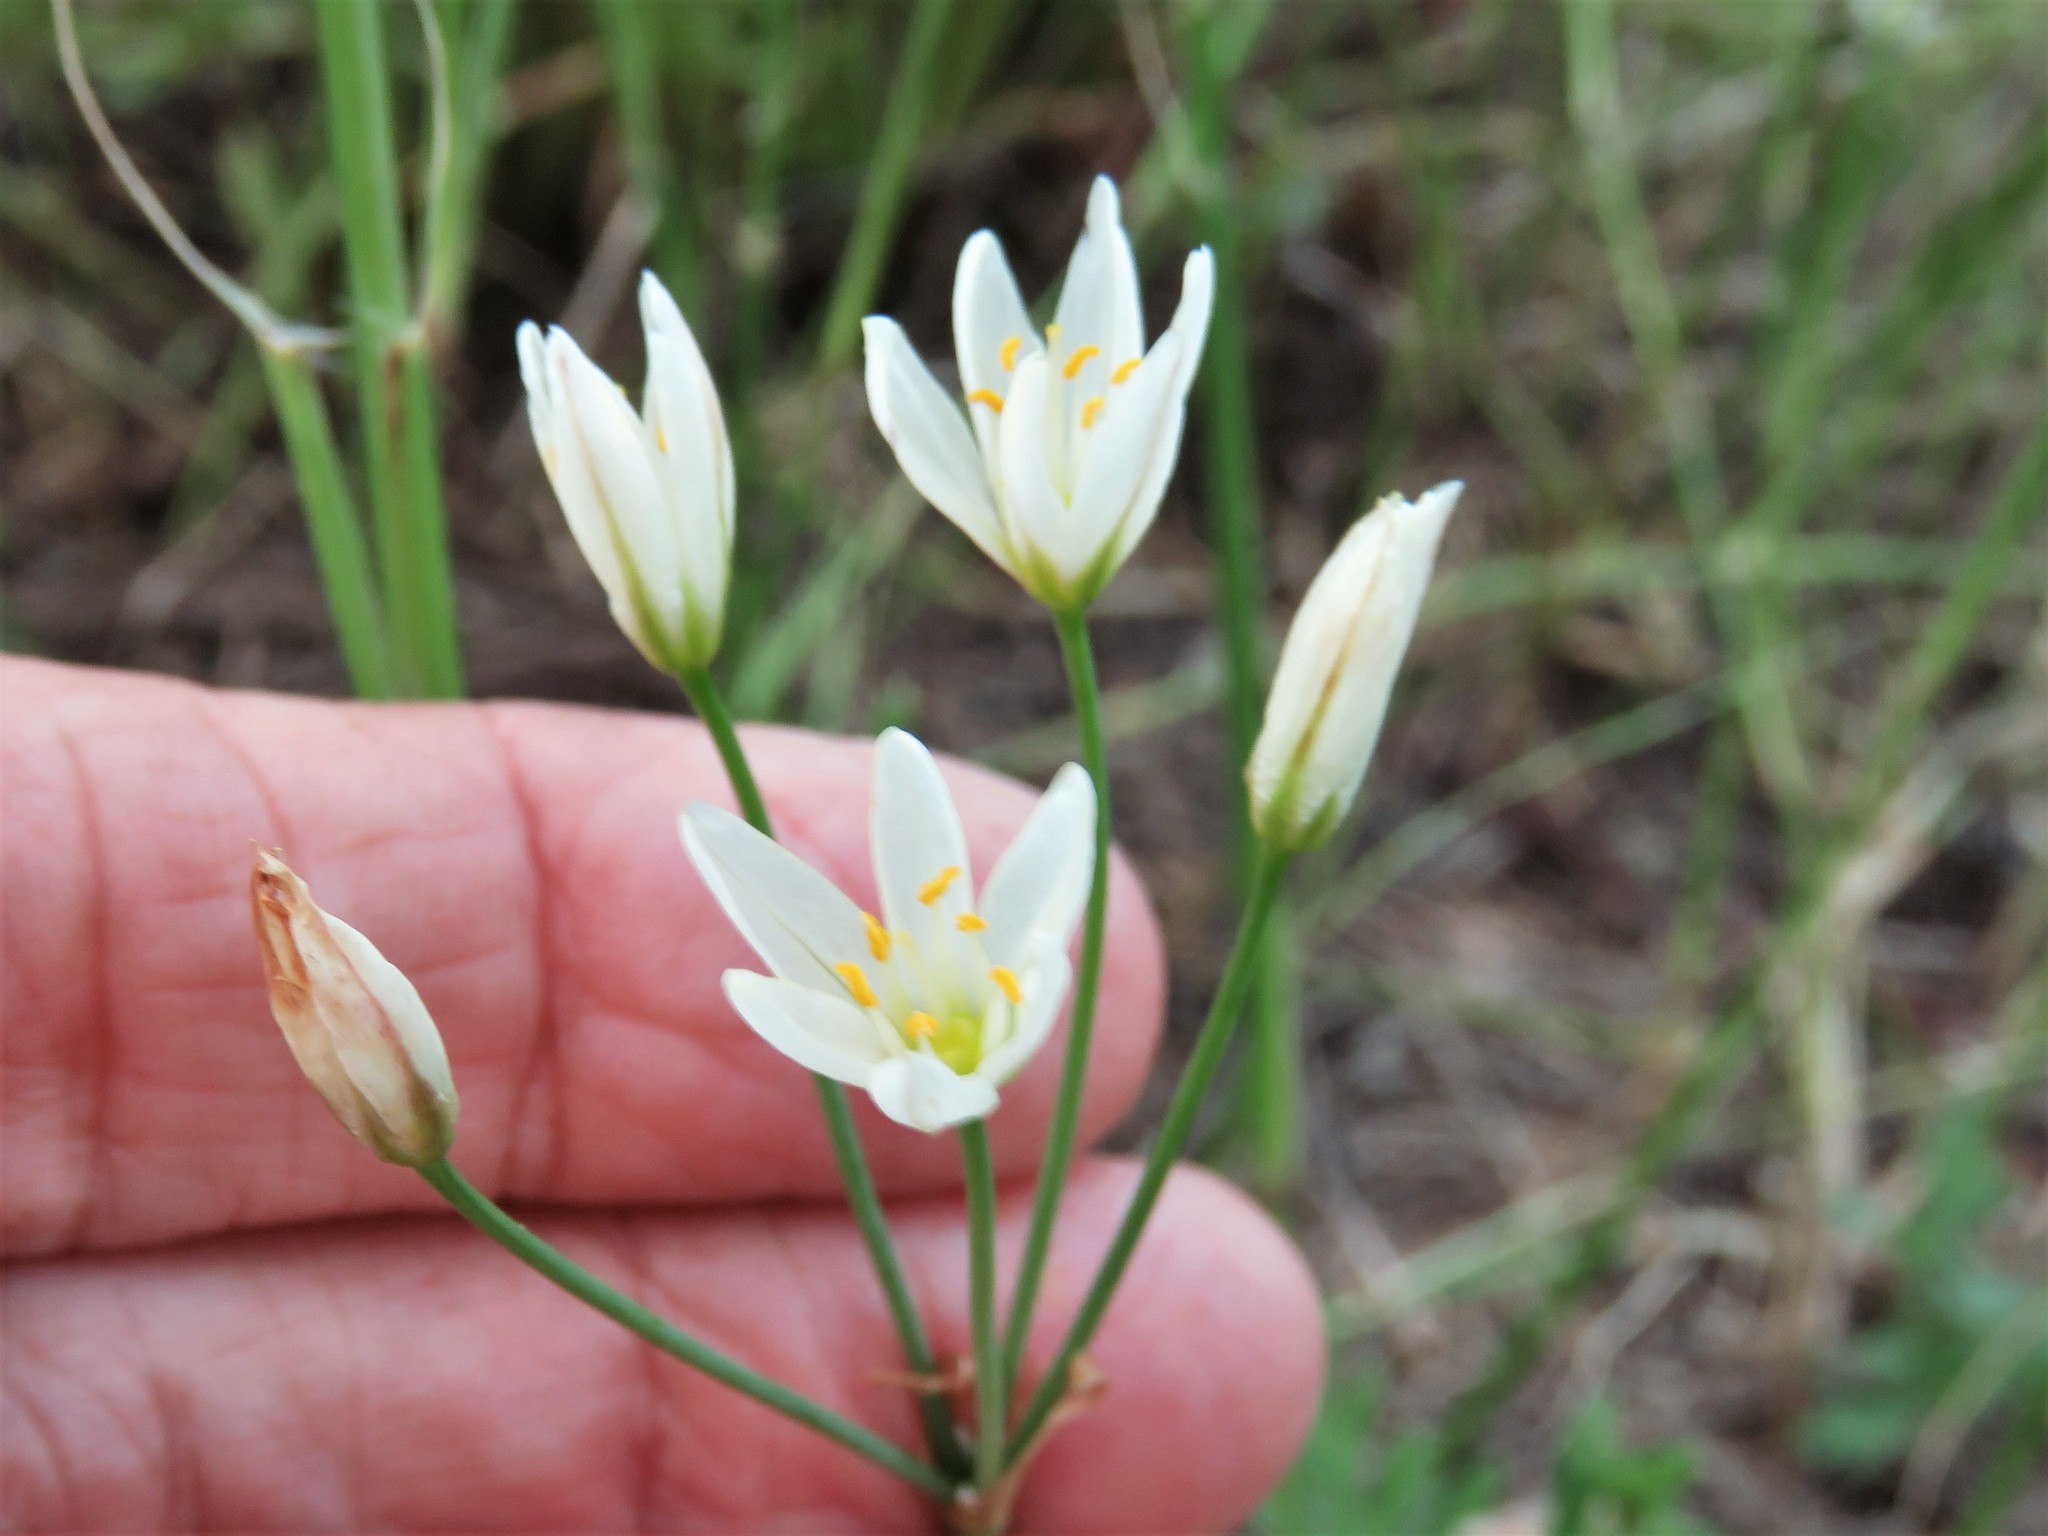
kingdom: Plantae
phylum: Tracheophyta
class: Liliopsida
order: Asparagales
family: Amaryllidaceae
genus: Nothoscordum
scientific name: Nothoscordum bivalve
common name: Crow-poison
